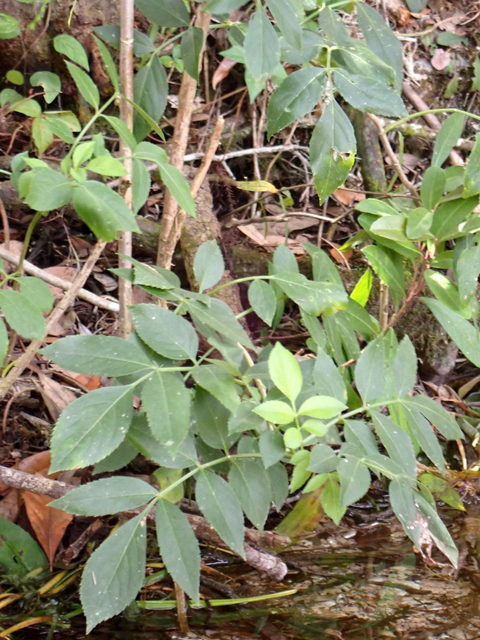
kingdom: Plantae
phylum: Tracheophyta
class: Magnoliopsida
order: Dipsacales
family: Viburnaceae
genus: Sambucus
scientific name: Sambucus canadensis
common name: American elder
